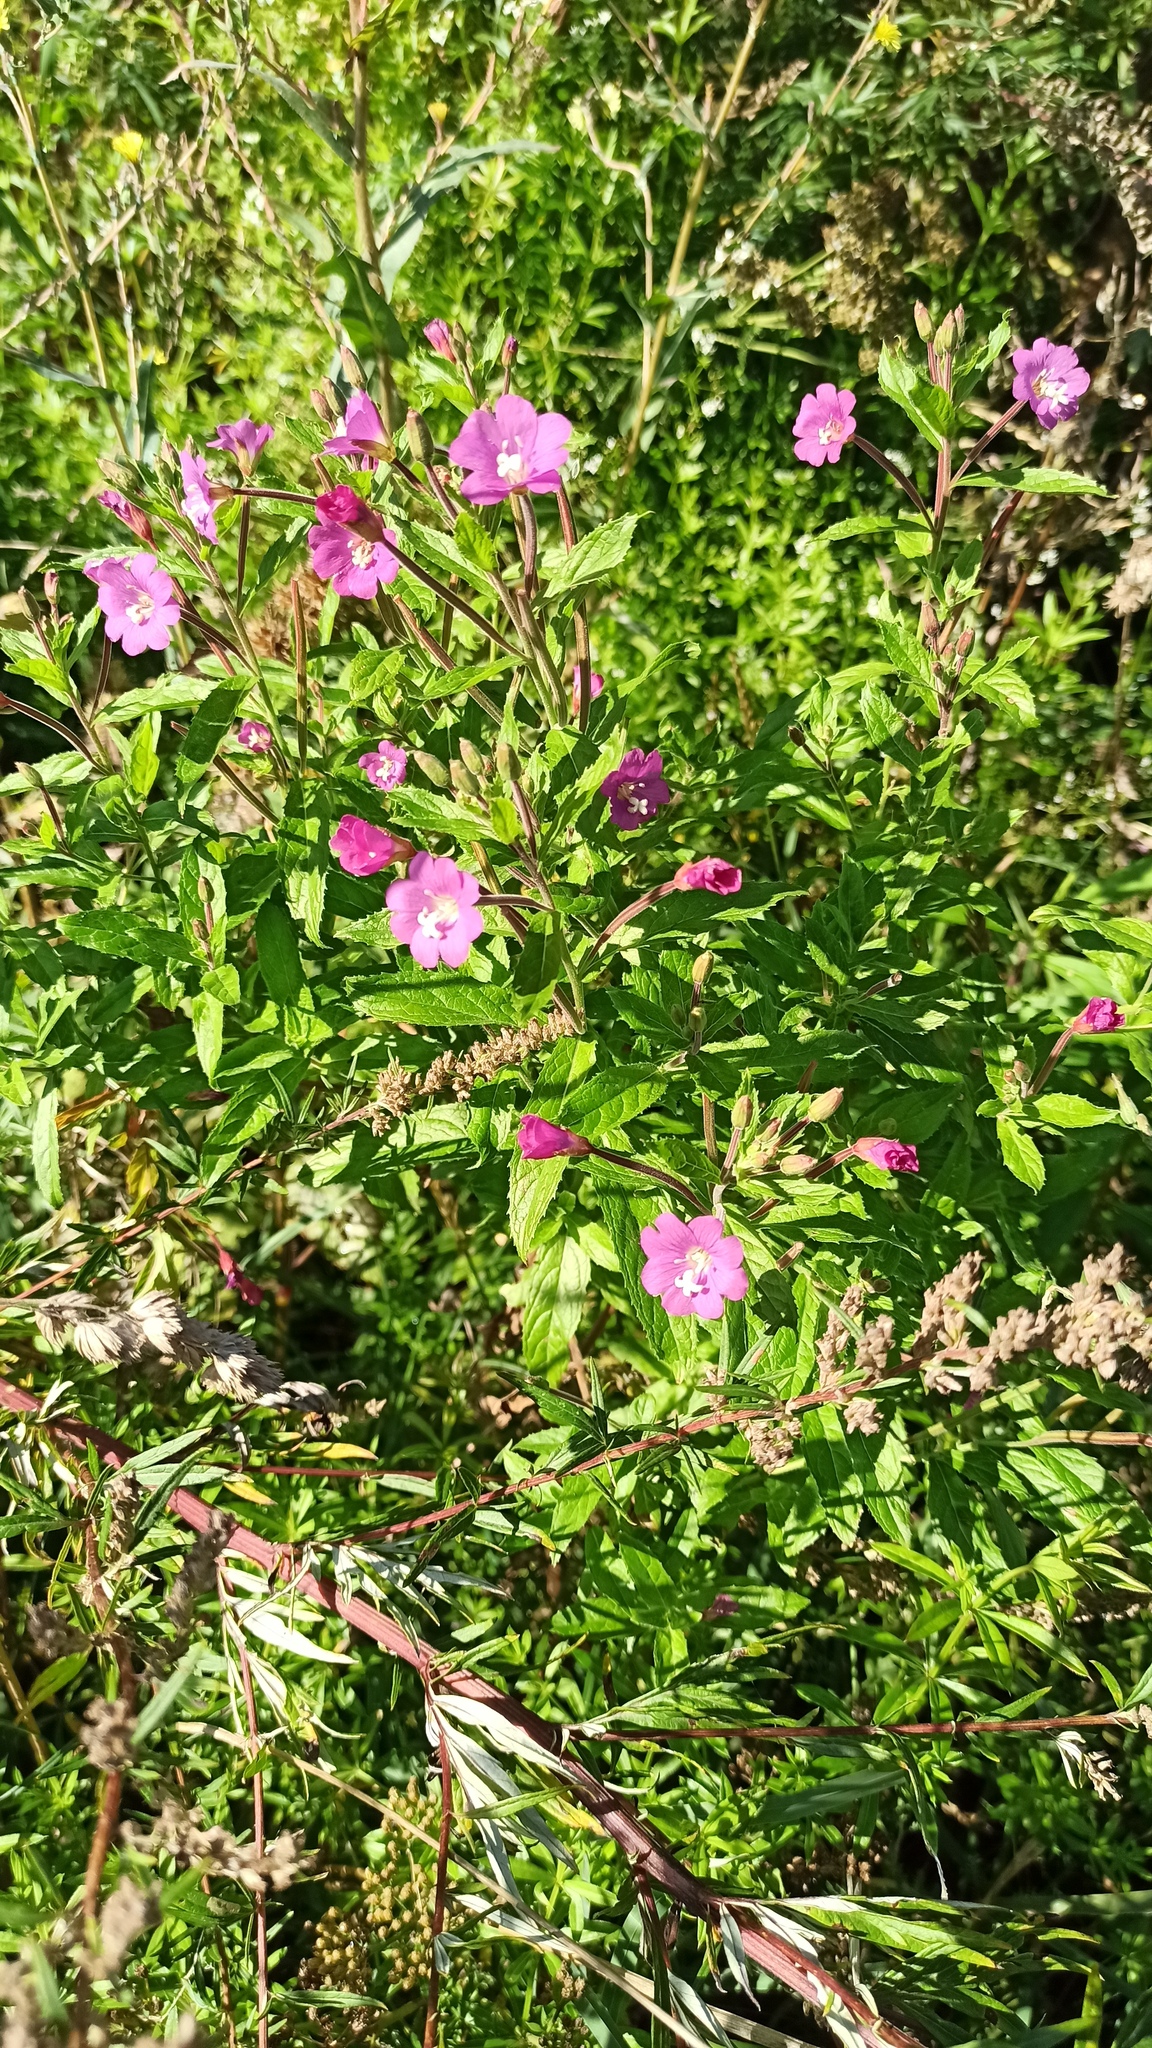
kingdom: Plantae
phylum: Tracheophyta
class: Magnoliopsida
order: Myrtales
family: Onagraceae
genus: Epilobium
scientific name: Epilobium hirsutum
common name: Great willowherb
